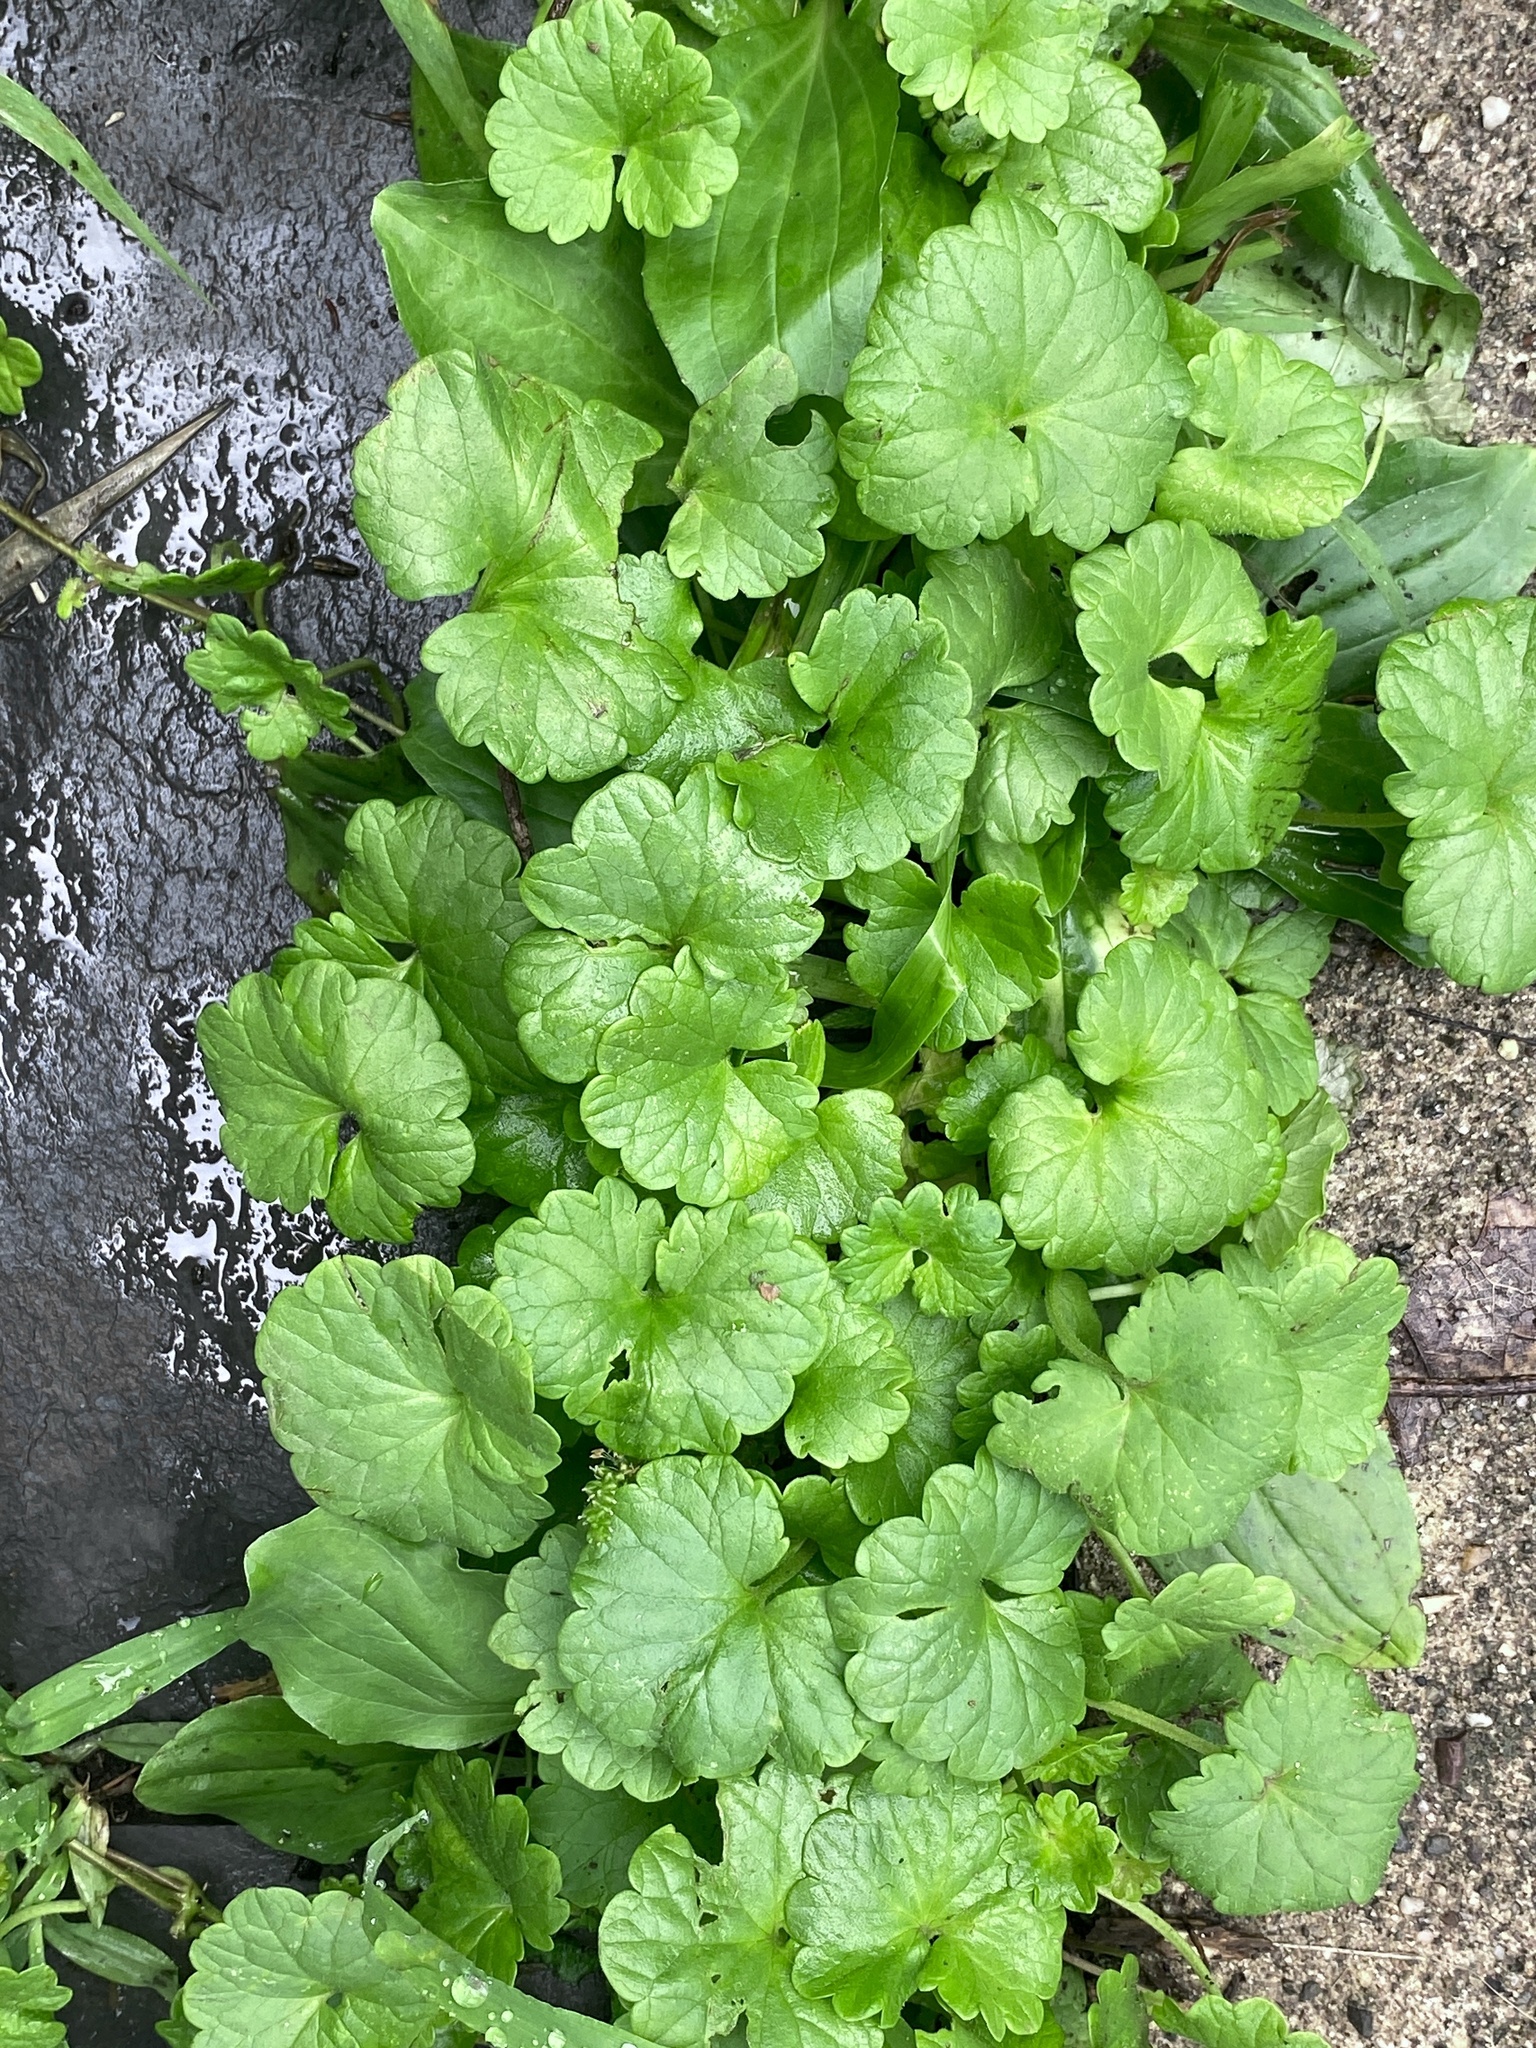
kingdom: Plantae
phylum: Tracheophyta
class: Magnoliopsida
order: Lamiales
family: Lamiaceae
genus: Glechoma
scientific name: Glechoma hederacea
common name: Ground ivy
